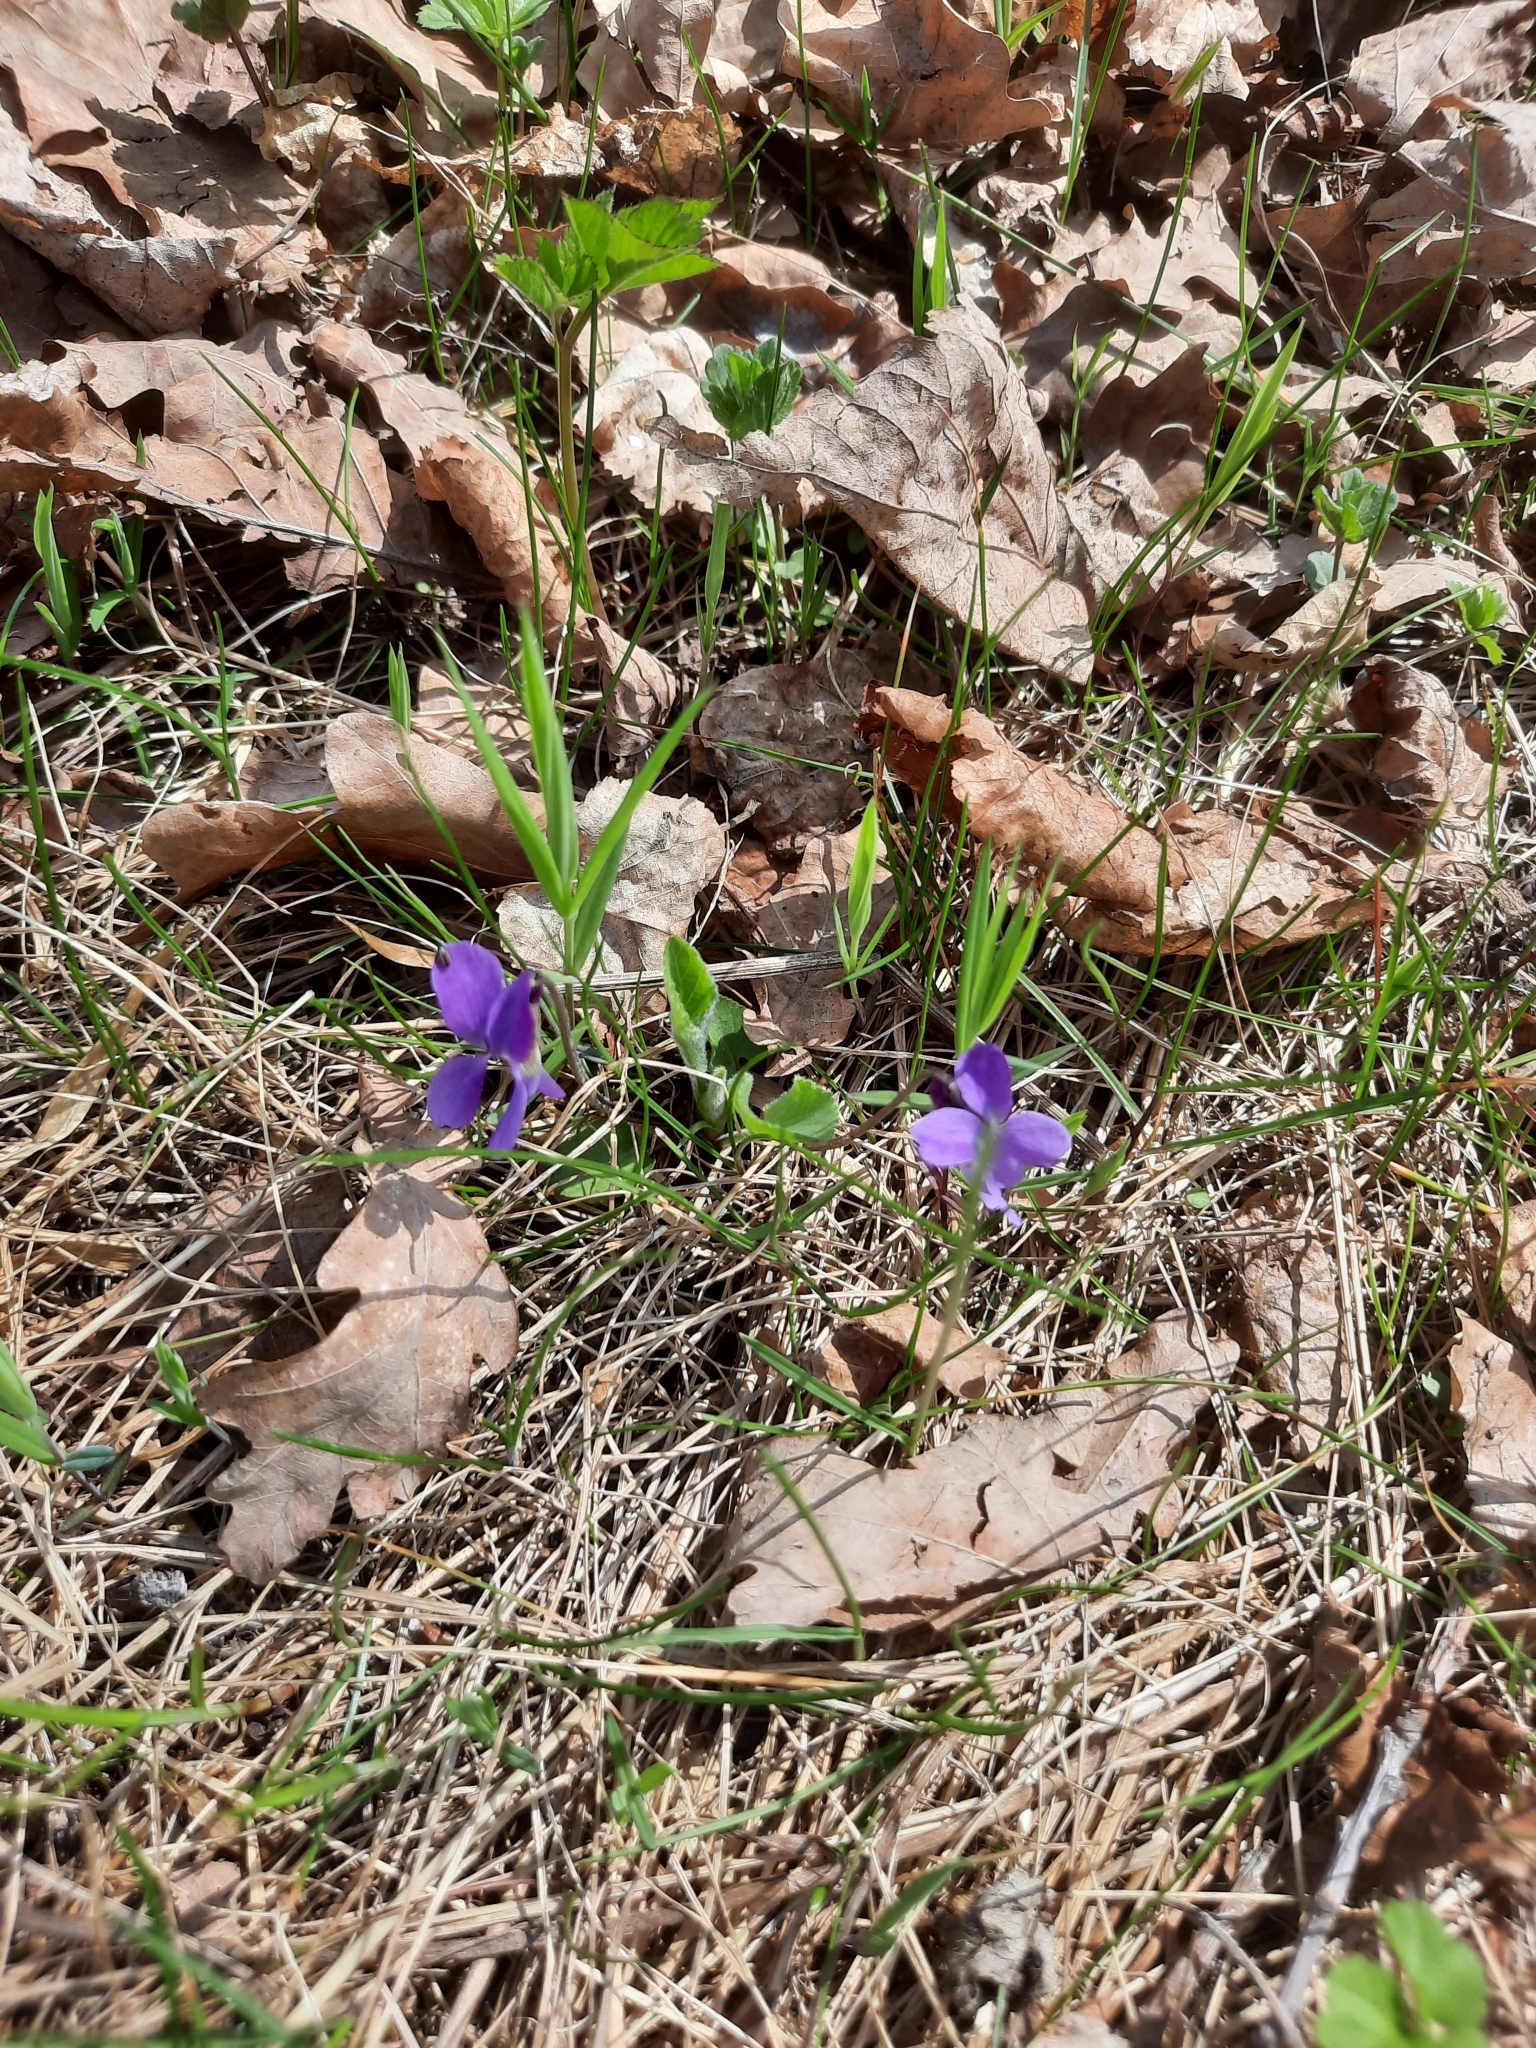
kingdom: Plantae
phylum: Tracheophyta
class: Magnoliopsida
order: Malpighiales
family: Violaceae
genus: Viola
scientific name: Viola hirta
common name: Hairy violet
